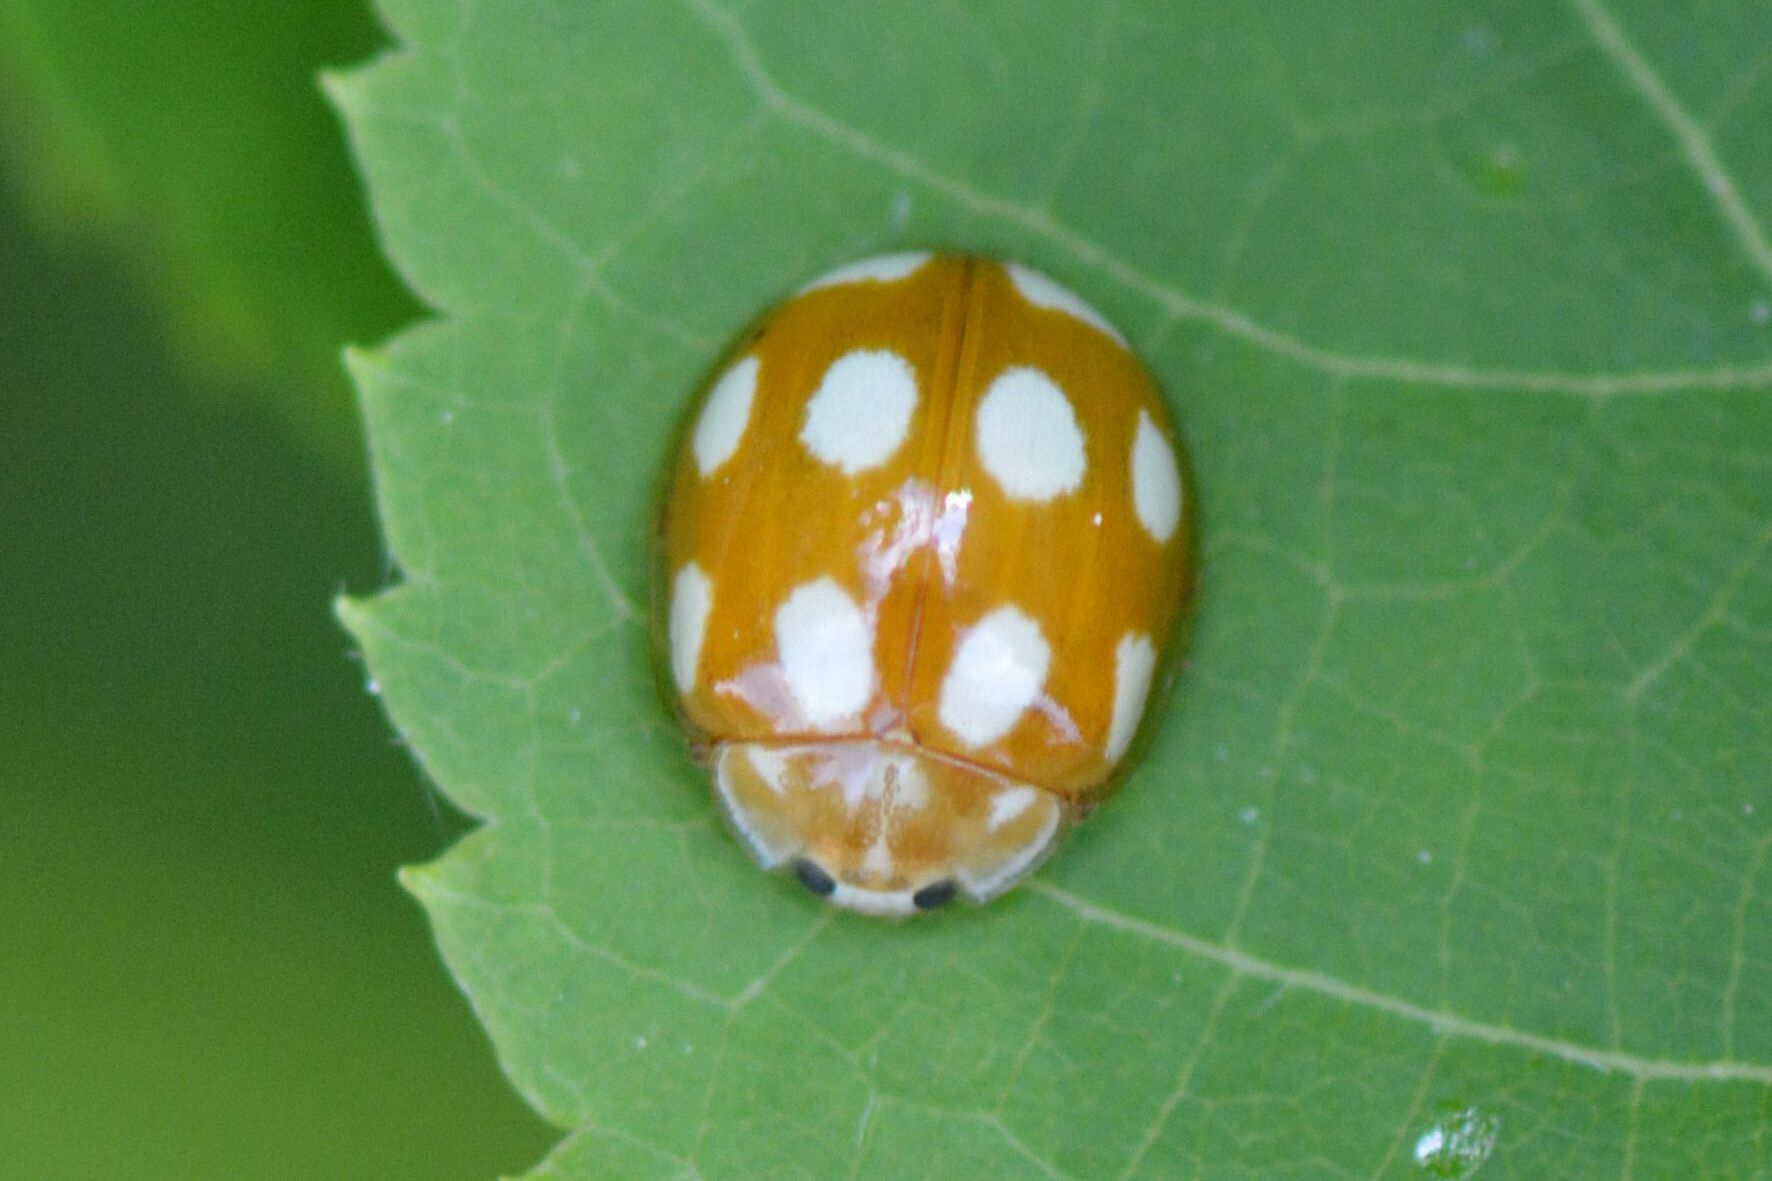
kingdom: Animalia
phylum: Arthropoda
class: Insecta
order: Coleoptera
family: Coccinellidae
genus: Calvia
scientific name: Calvia decemguttata
